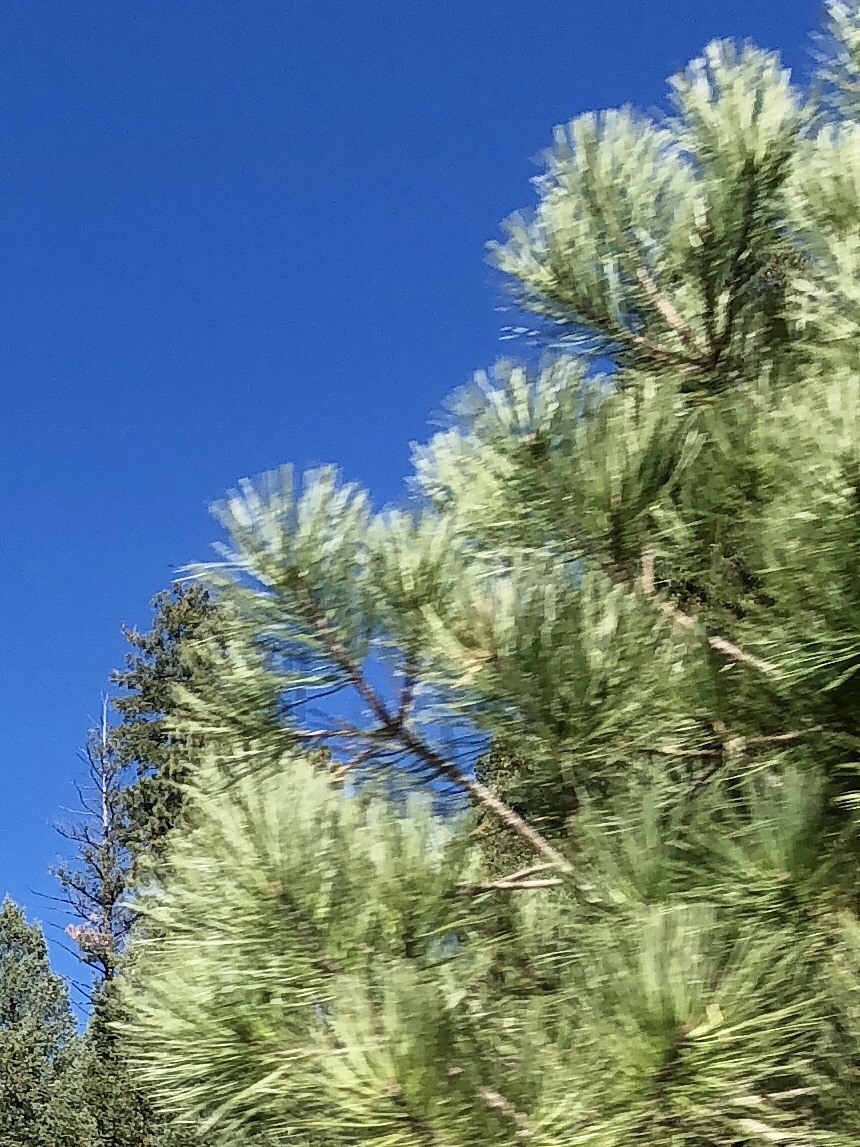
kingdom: Plantae
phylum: Tracheophyta
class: Pinopsida
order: Pinales
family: Pinaceae
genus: Pinus
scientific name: Pinus ponderosa
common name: Western yellow-pine
